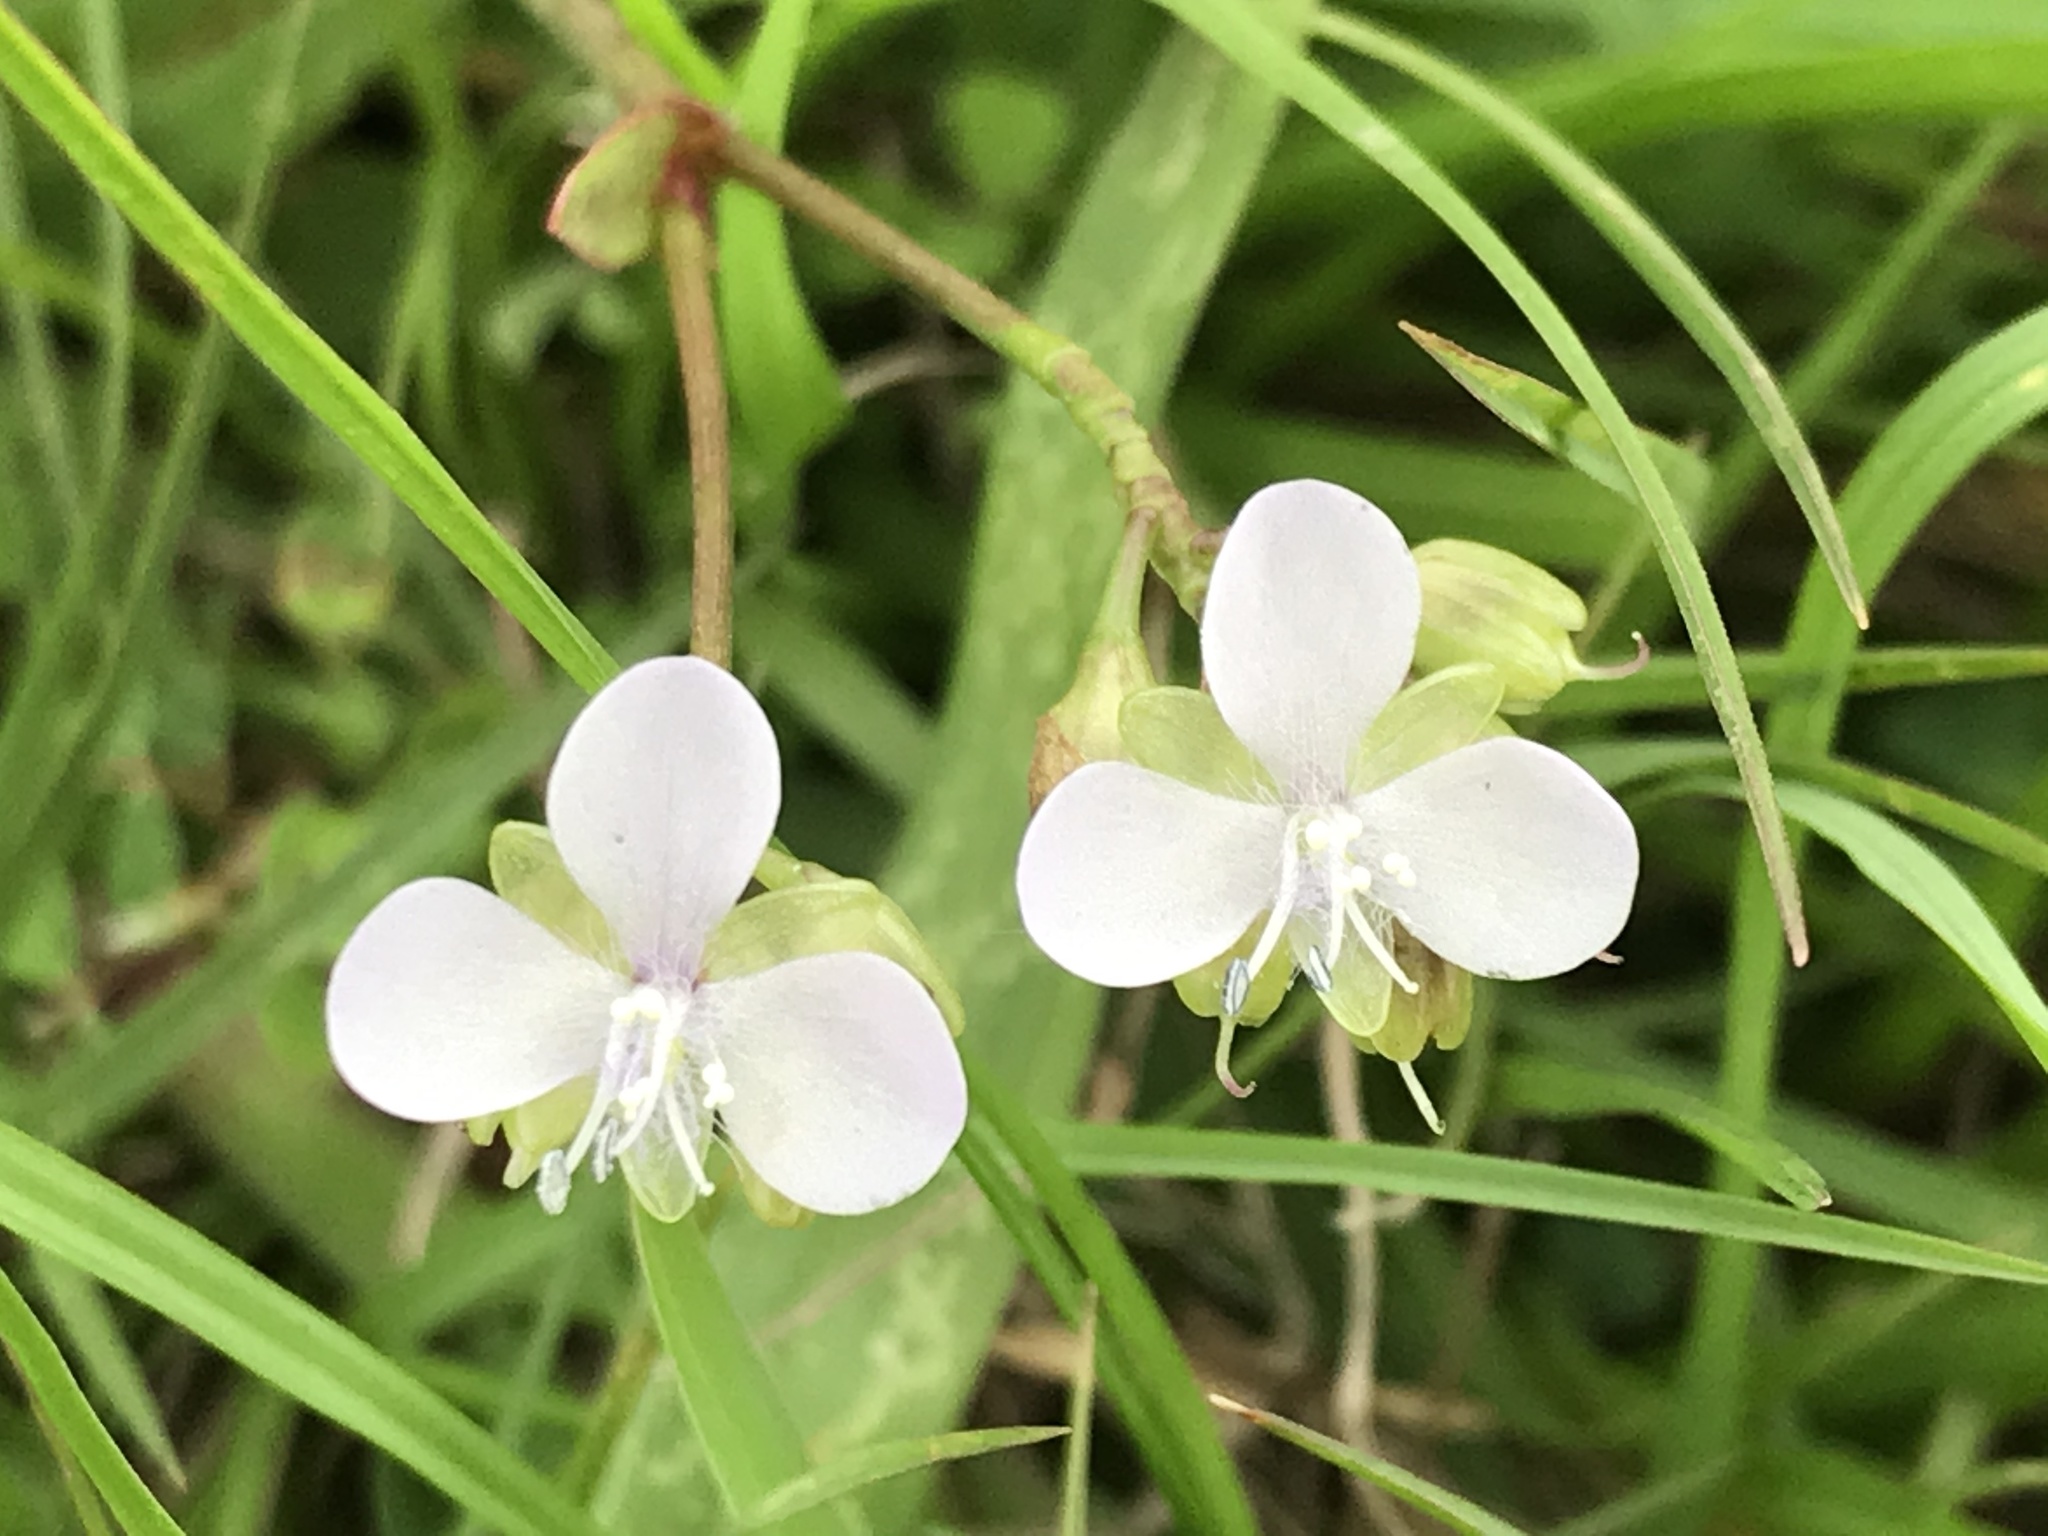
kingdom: Plantae
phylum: Tracheophyta
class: Liliopsida
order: Commelinales
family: Commelinaceae
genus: Murdannia
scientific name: Murdannia loriformis
